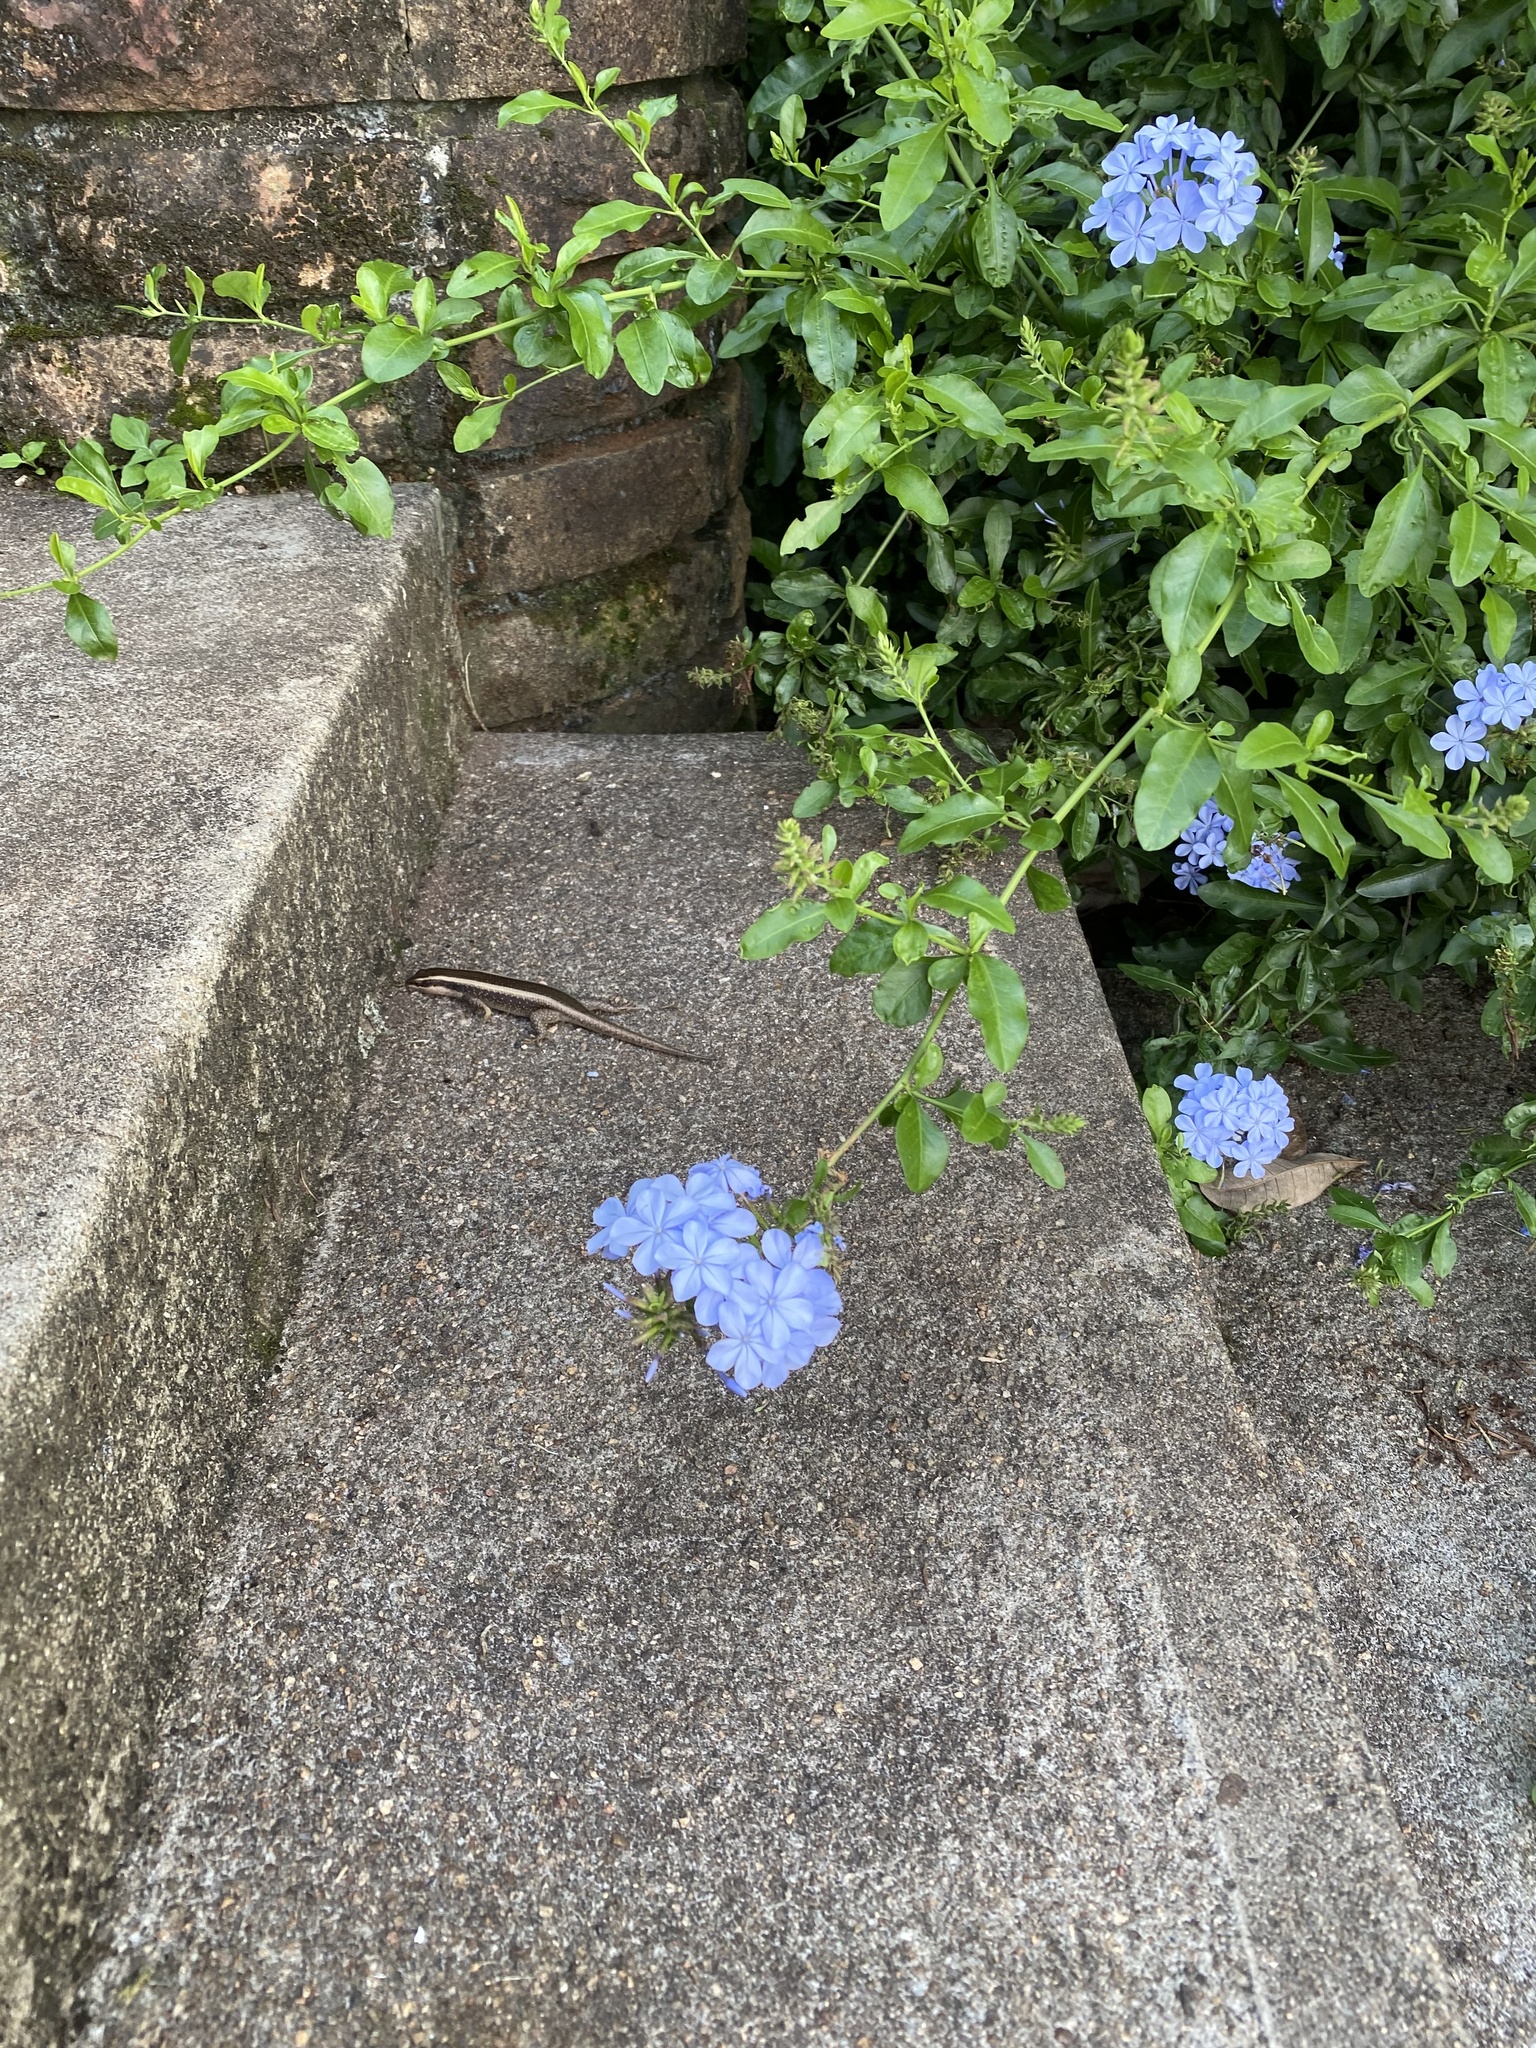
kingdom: Animalia
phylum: Chordata
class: Squamata
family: Scincidae
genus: Trachylepis
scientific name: Trachylepis striata
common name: African striped mabuya
